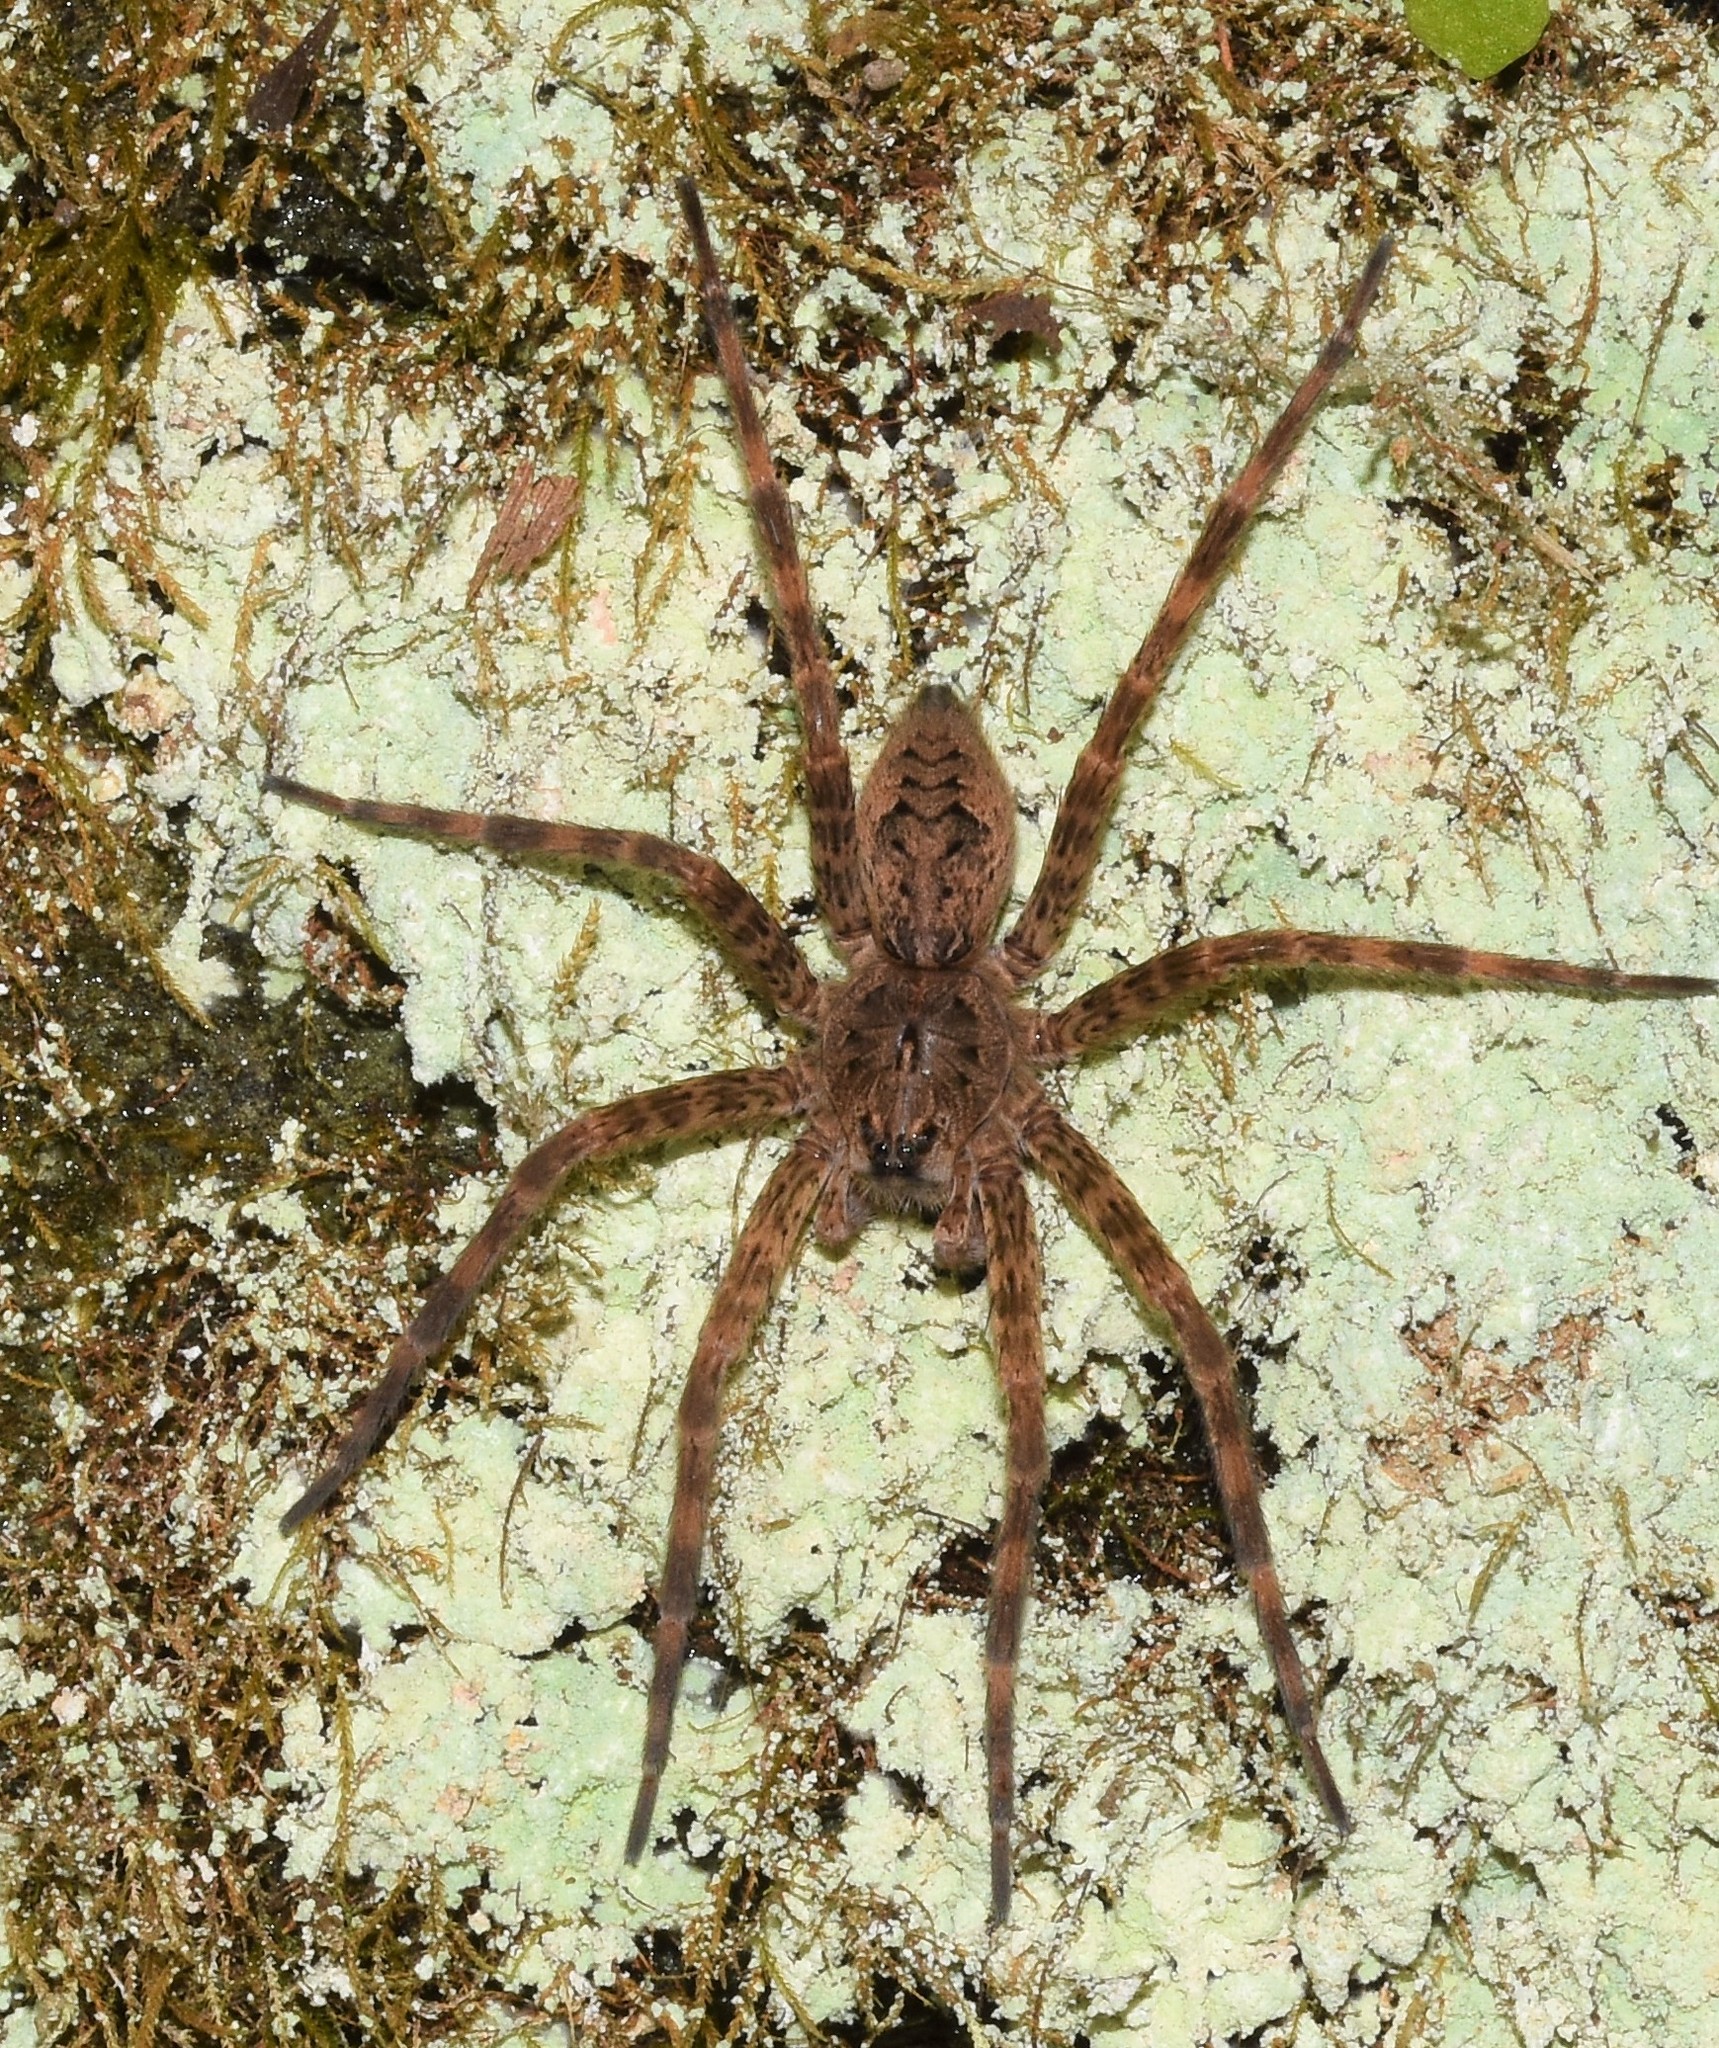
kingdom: Animalia
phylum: Arthropoda
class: Arachnida
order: Araneae
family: Pisauridae
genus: Dolomedes
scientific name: Dolomedes tenebrosus
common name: Dark fishing spider
